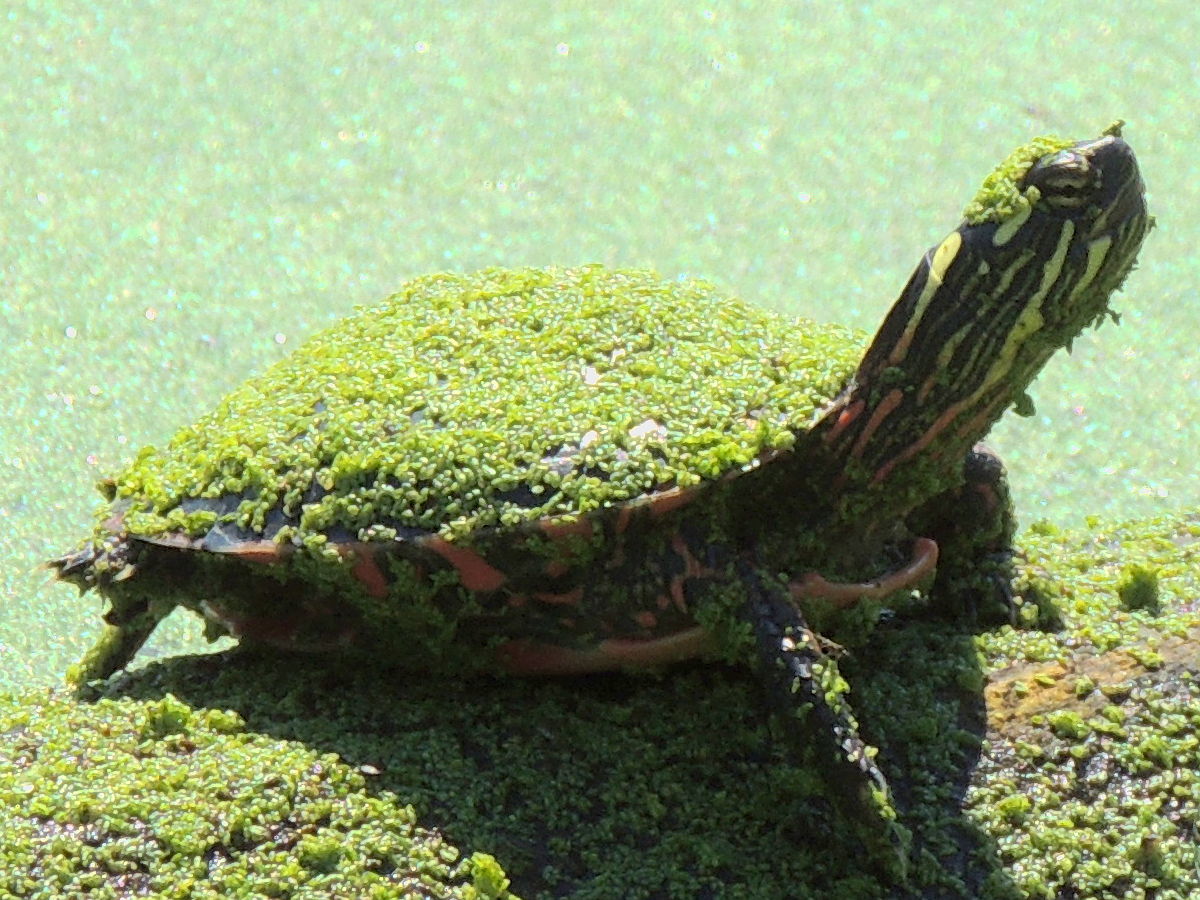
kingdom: Animalia
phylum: Chordata
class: Testudines
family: Emydidae
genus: Chrysemys
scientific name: Chrysemys picta
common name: Painted turtle
